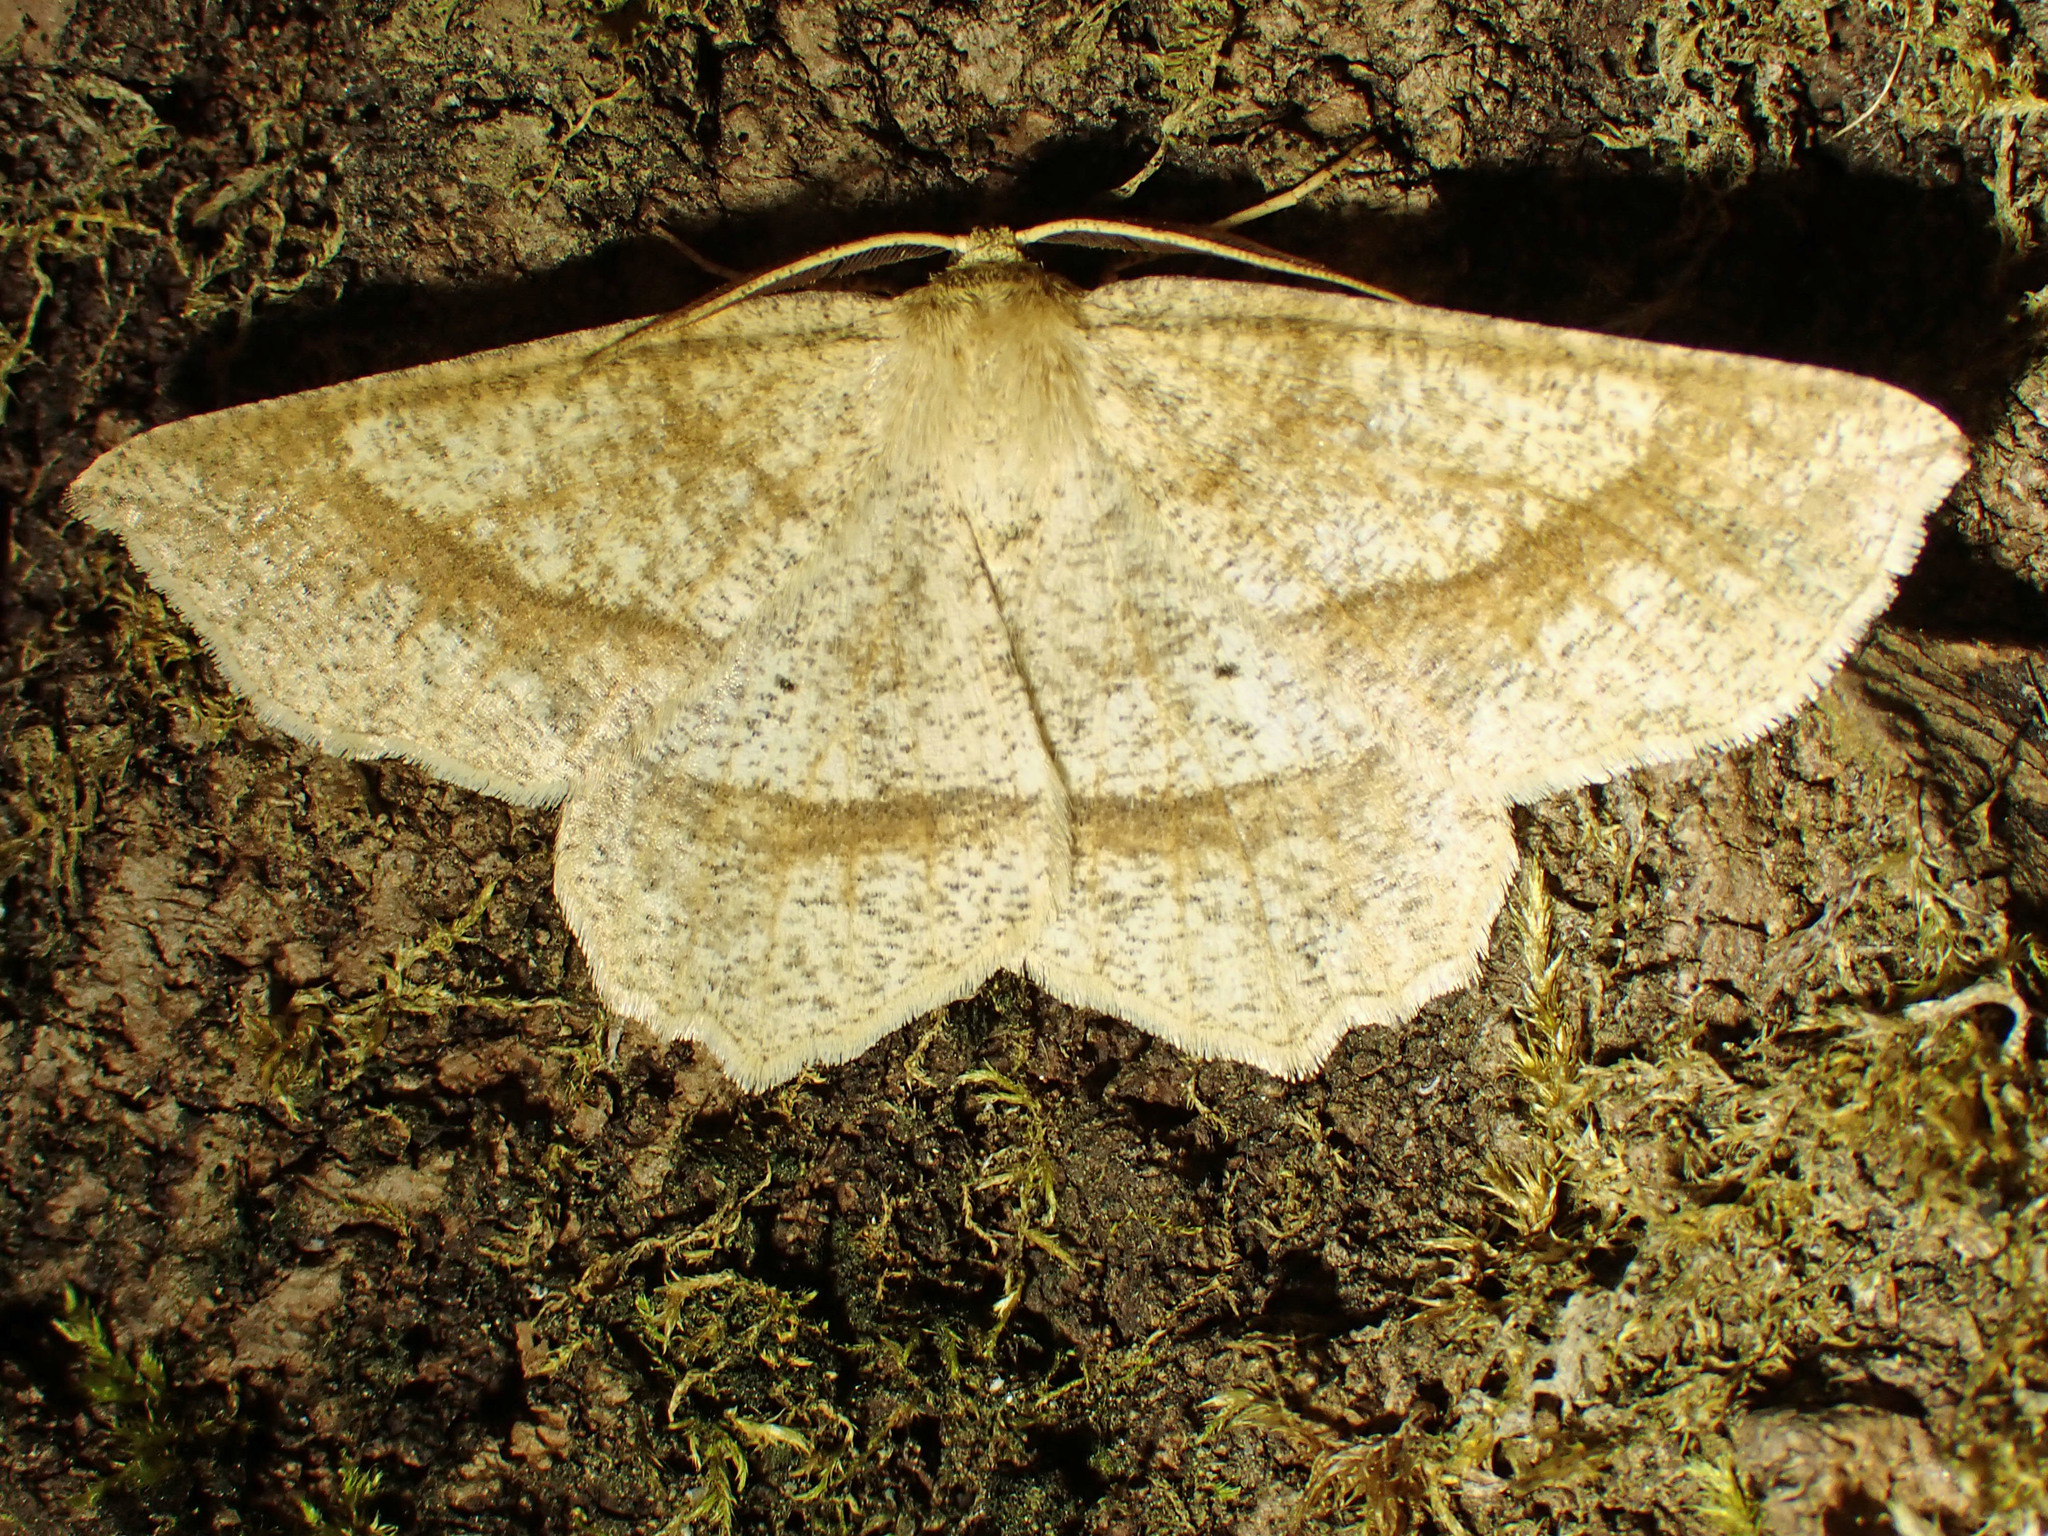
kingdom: Animalia
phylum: Arthropoda
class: Insecta
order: Lepidoptera
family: Geometridae
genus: Euchlaena
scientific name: Euchlaena marginaria
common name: Ochre euchlaena moth
